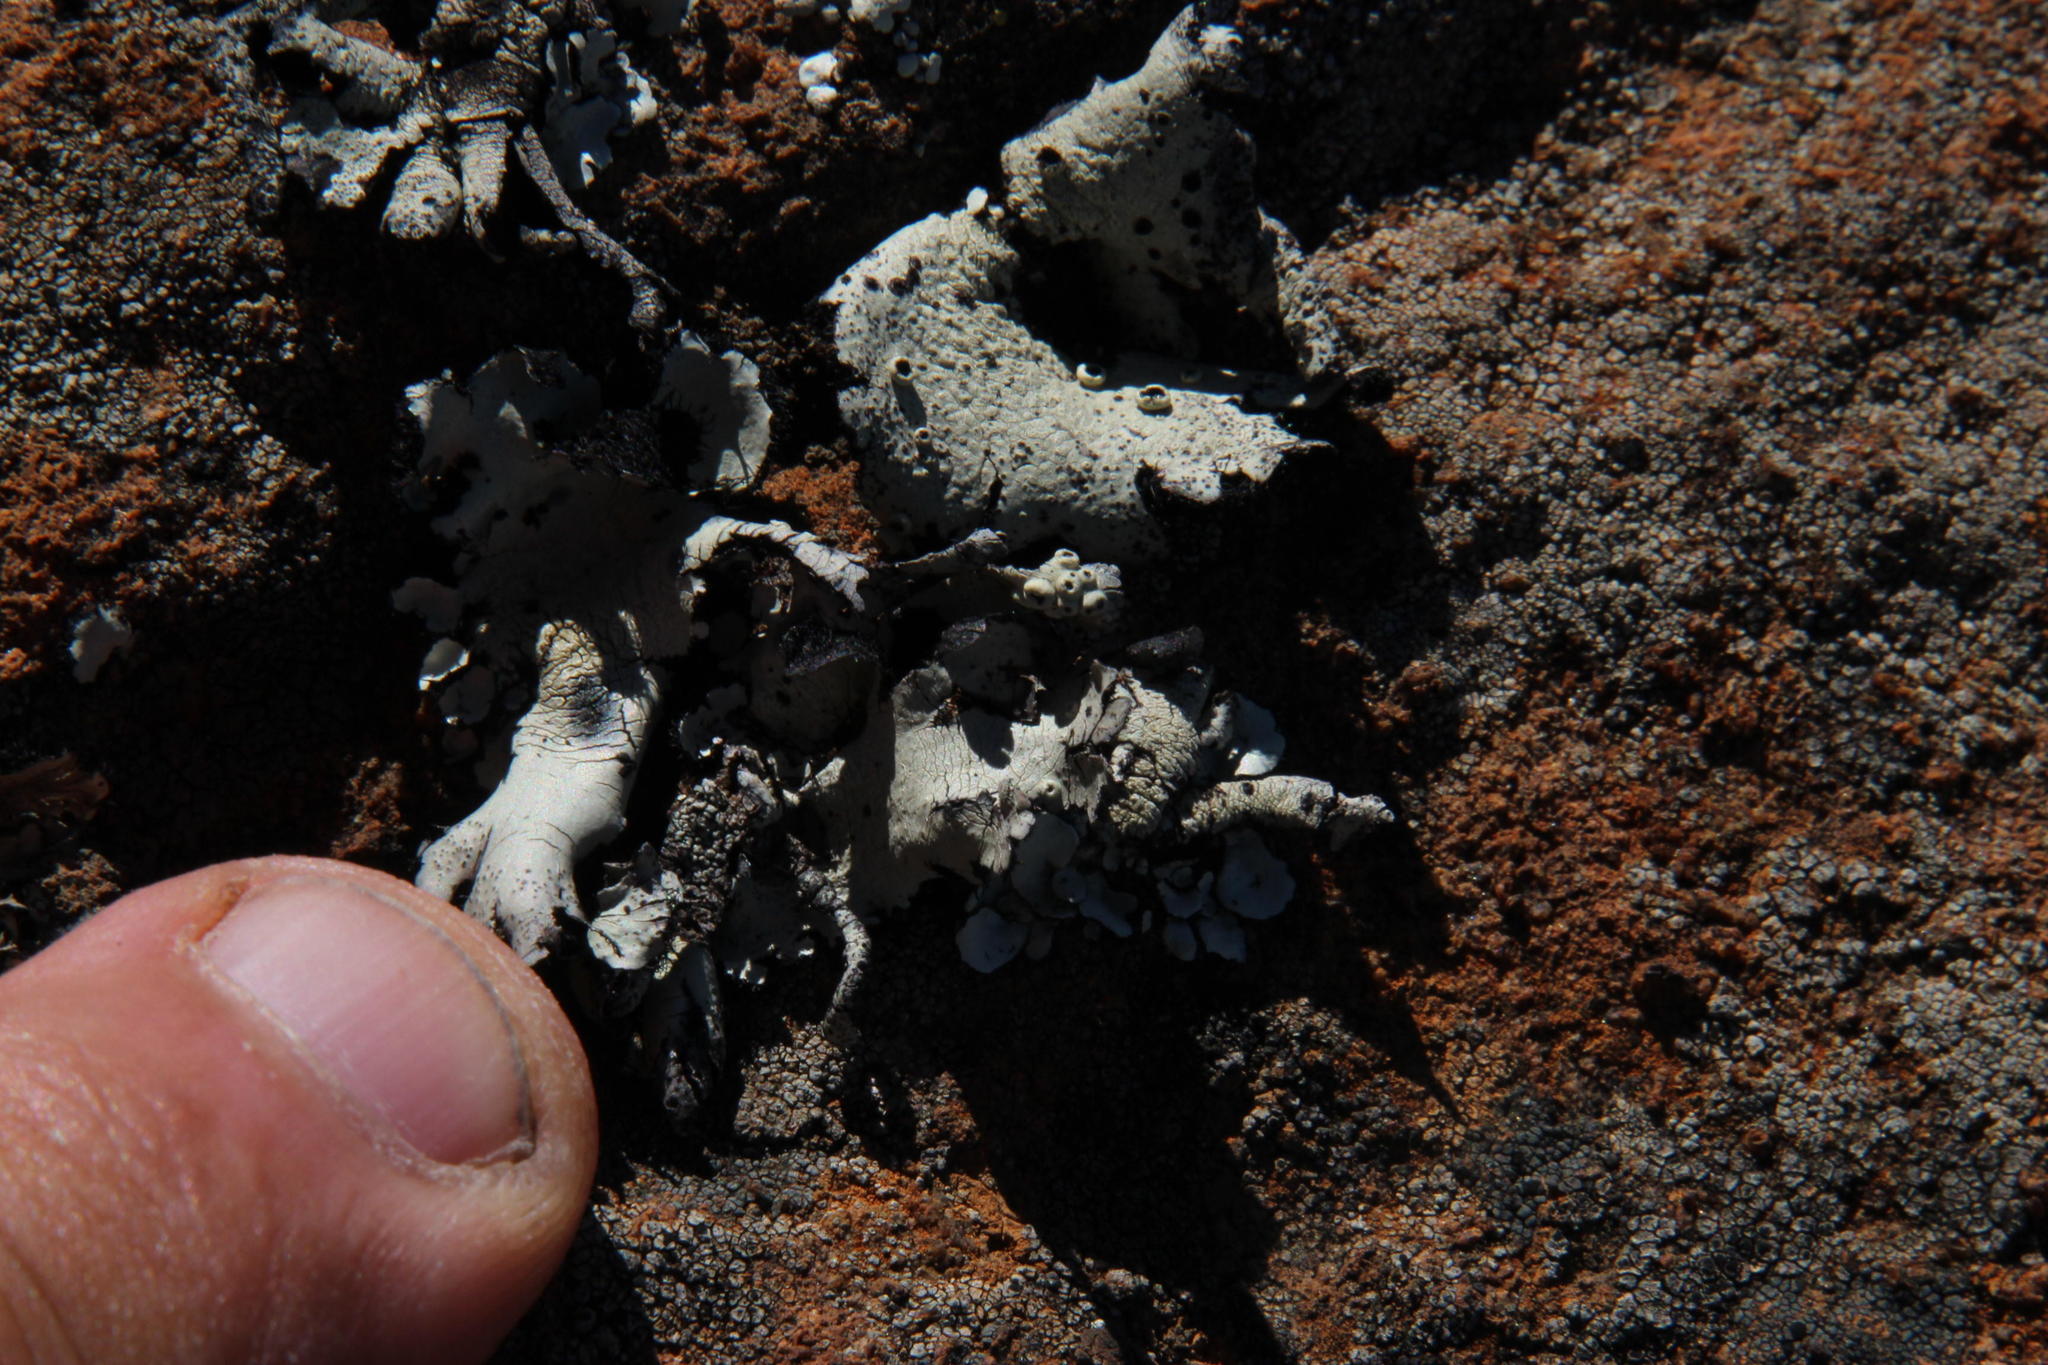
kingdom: Fungi
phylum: Ascomycota
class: Lecanoromycetes
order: Lecanorales
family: Parmeliaceae
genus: Xanthoparmelia
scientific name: Xanthoparmelia hottentotta
